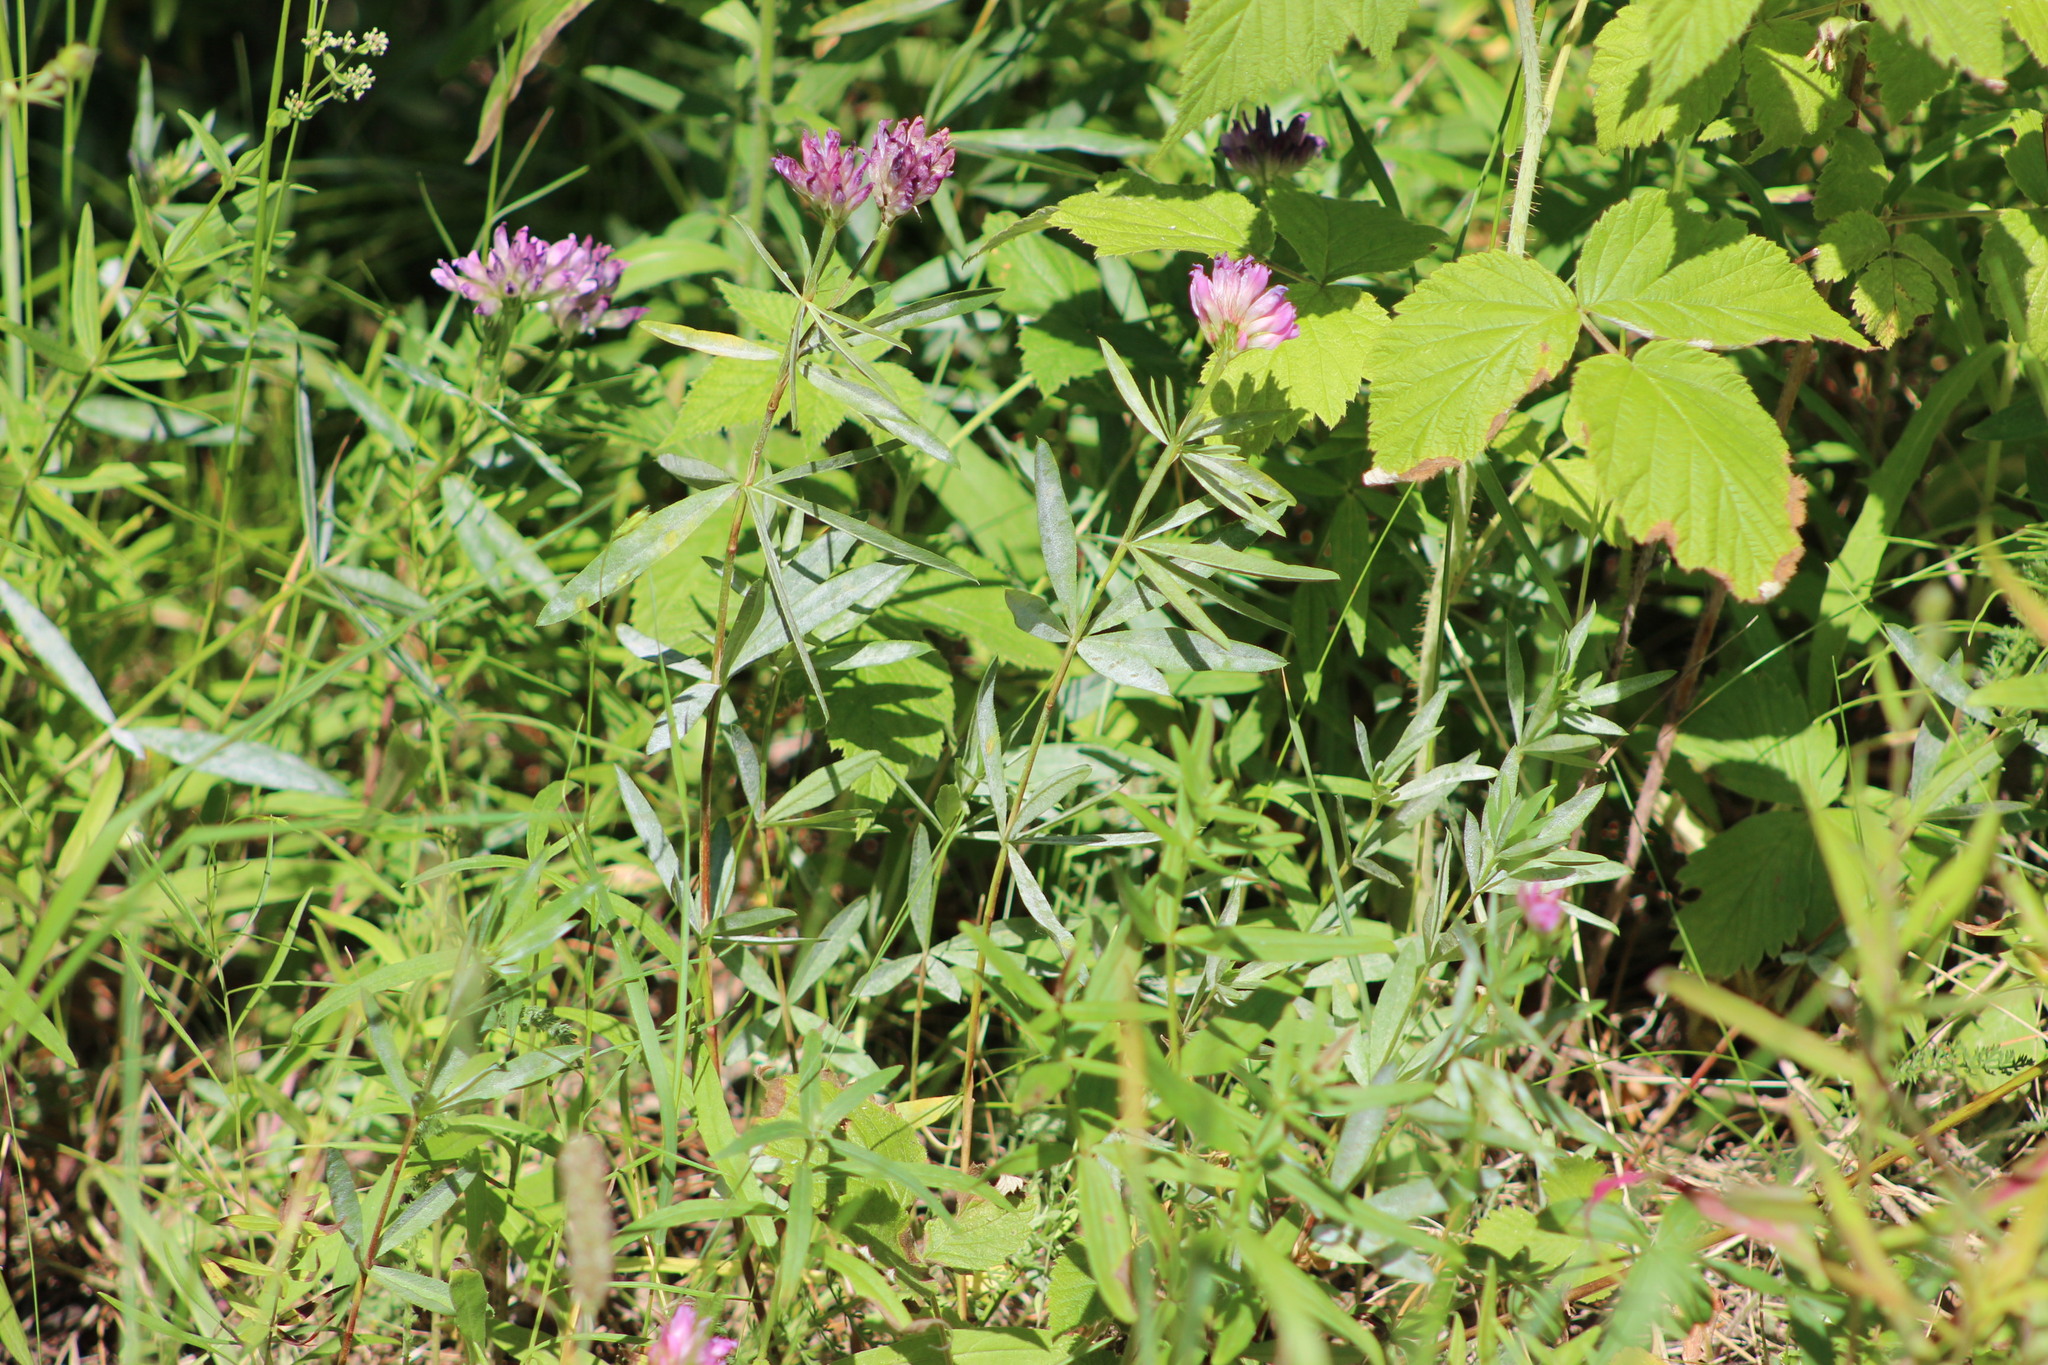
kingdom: Plantae
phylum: Tracheophyta
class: Magnoliopsida
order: Fabales
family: Fabaceae
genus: Trifolium
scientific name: Trifolium lupinaster
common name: Lupine clover
